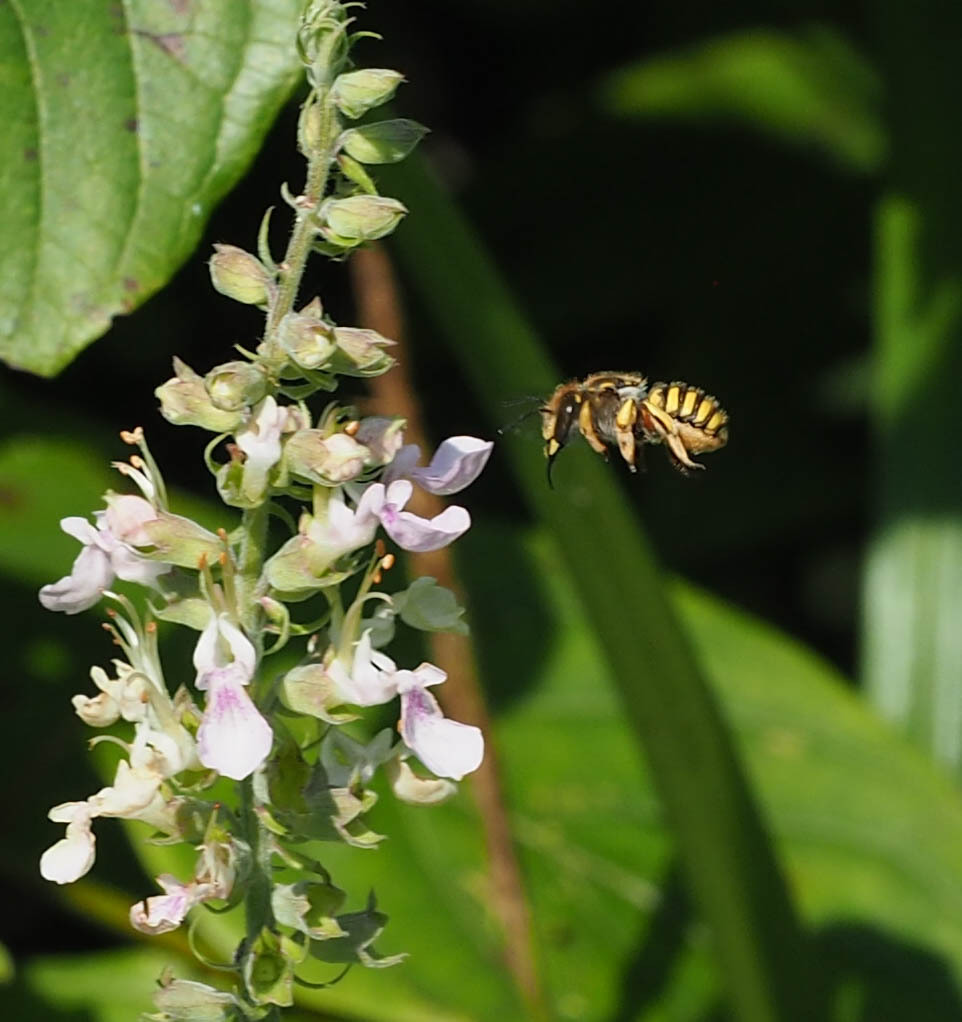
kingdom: Animalia
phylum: Arthropoda
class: Insecta
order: Hymenoptera
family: Megachilidae
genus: Anthidium
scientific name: Anthidium manicatum
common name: Wool carder bee
